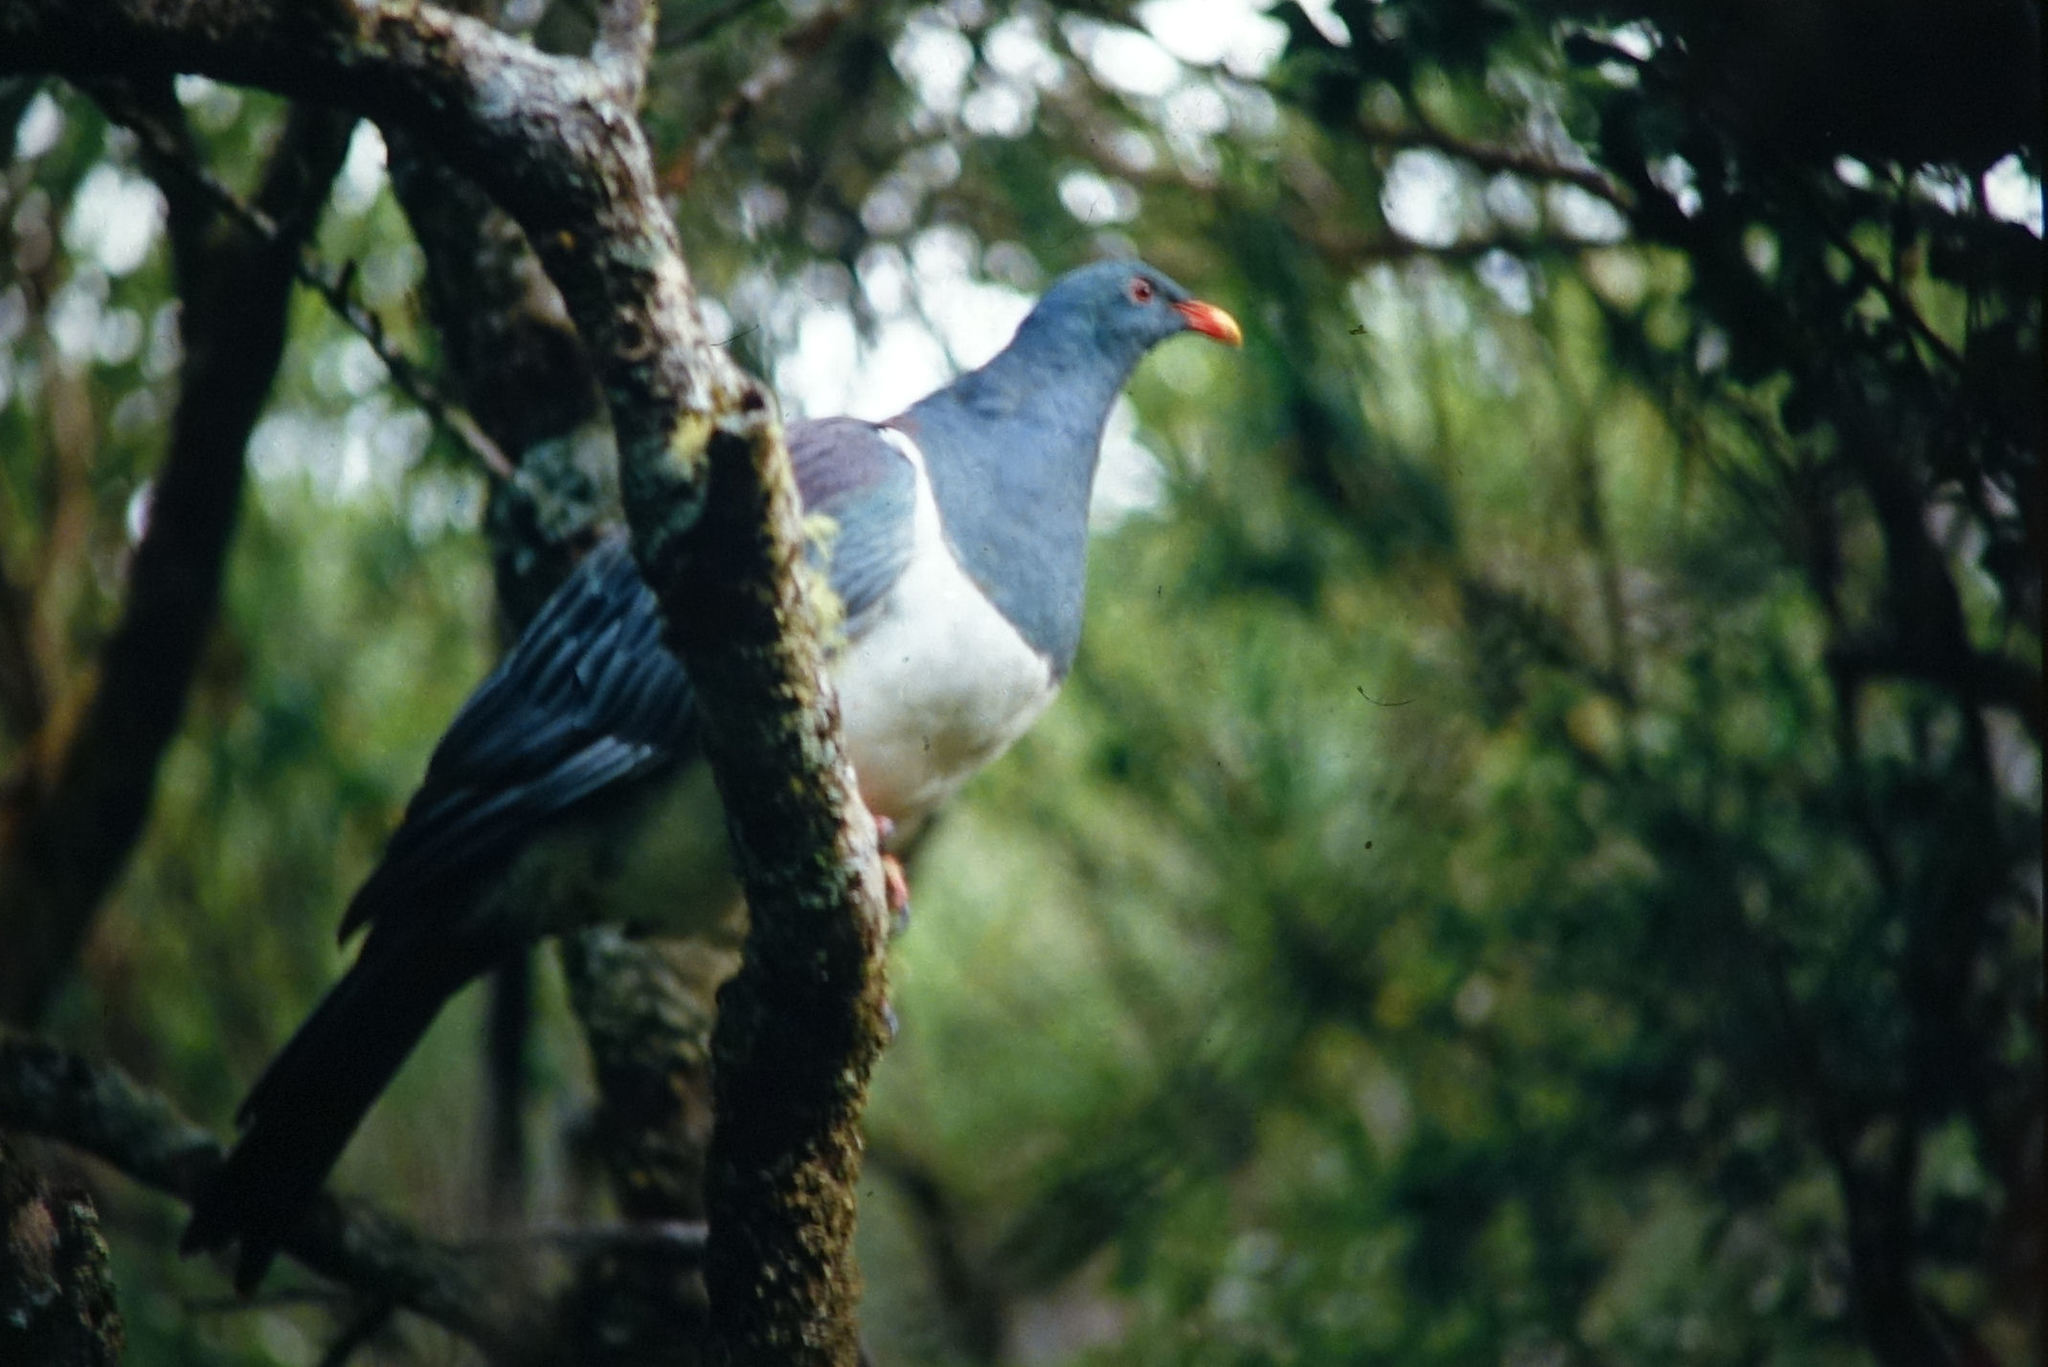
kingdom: Animalia
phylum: Chordata
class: Aves
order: Columbiformes
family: Columbidae
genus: Hemiphaga
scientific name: Hemiphaga chathamensis
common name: Chatham pigeon
